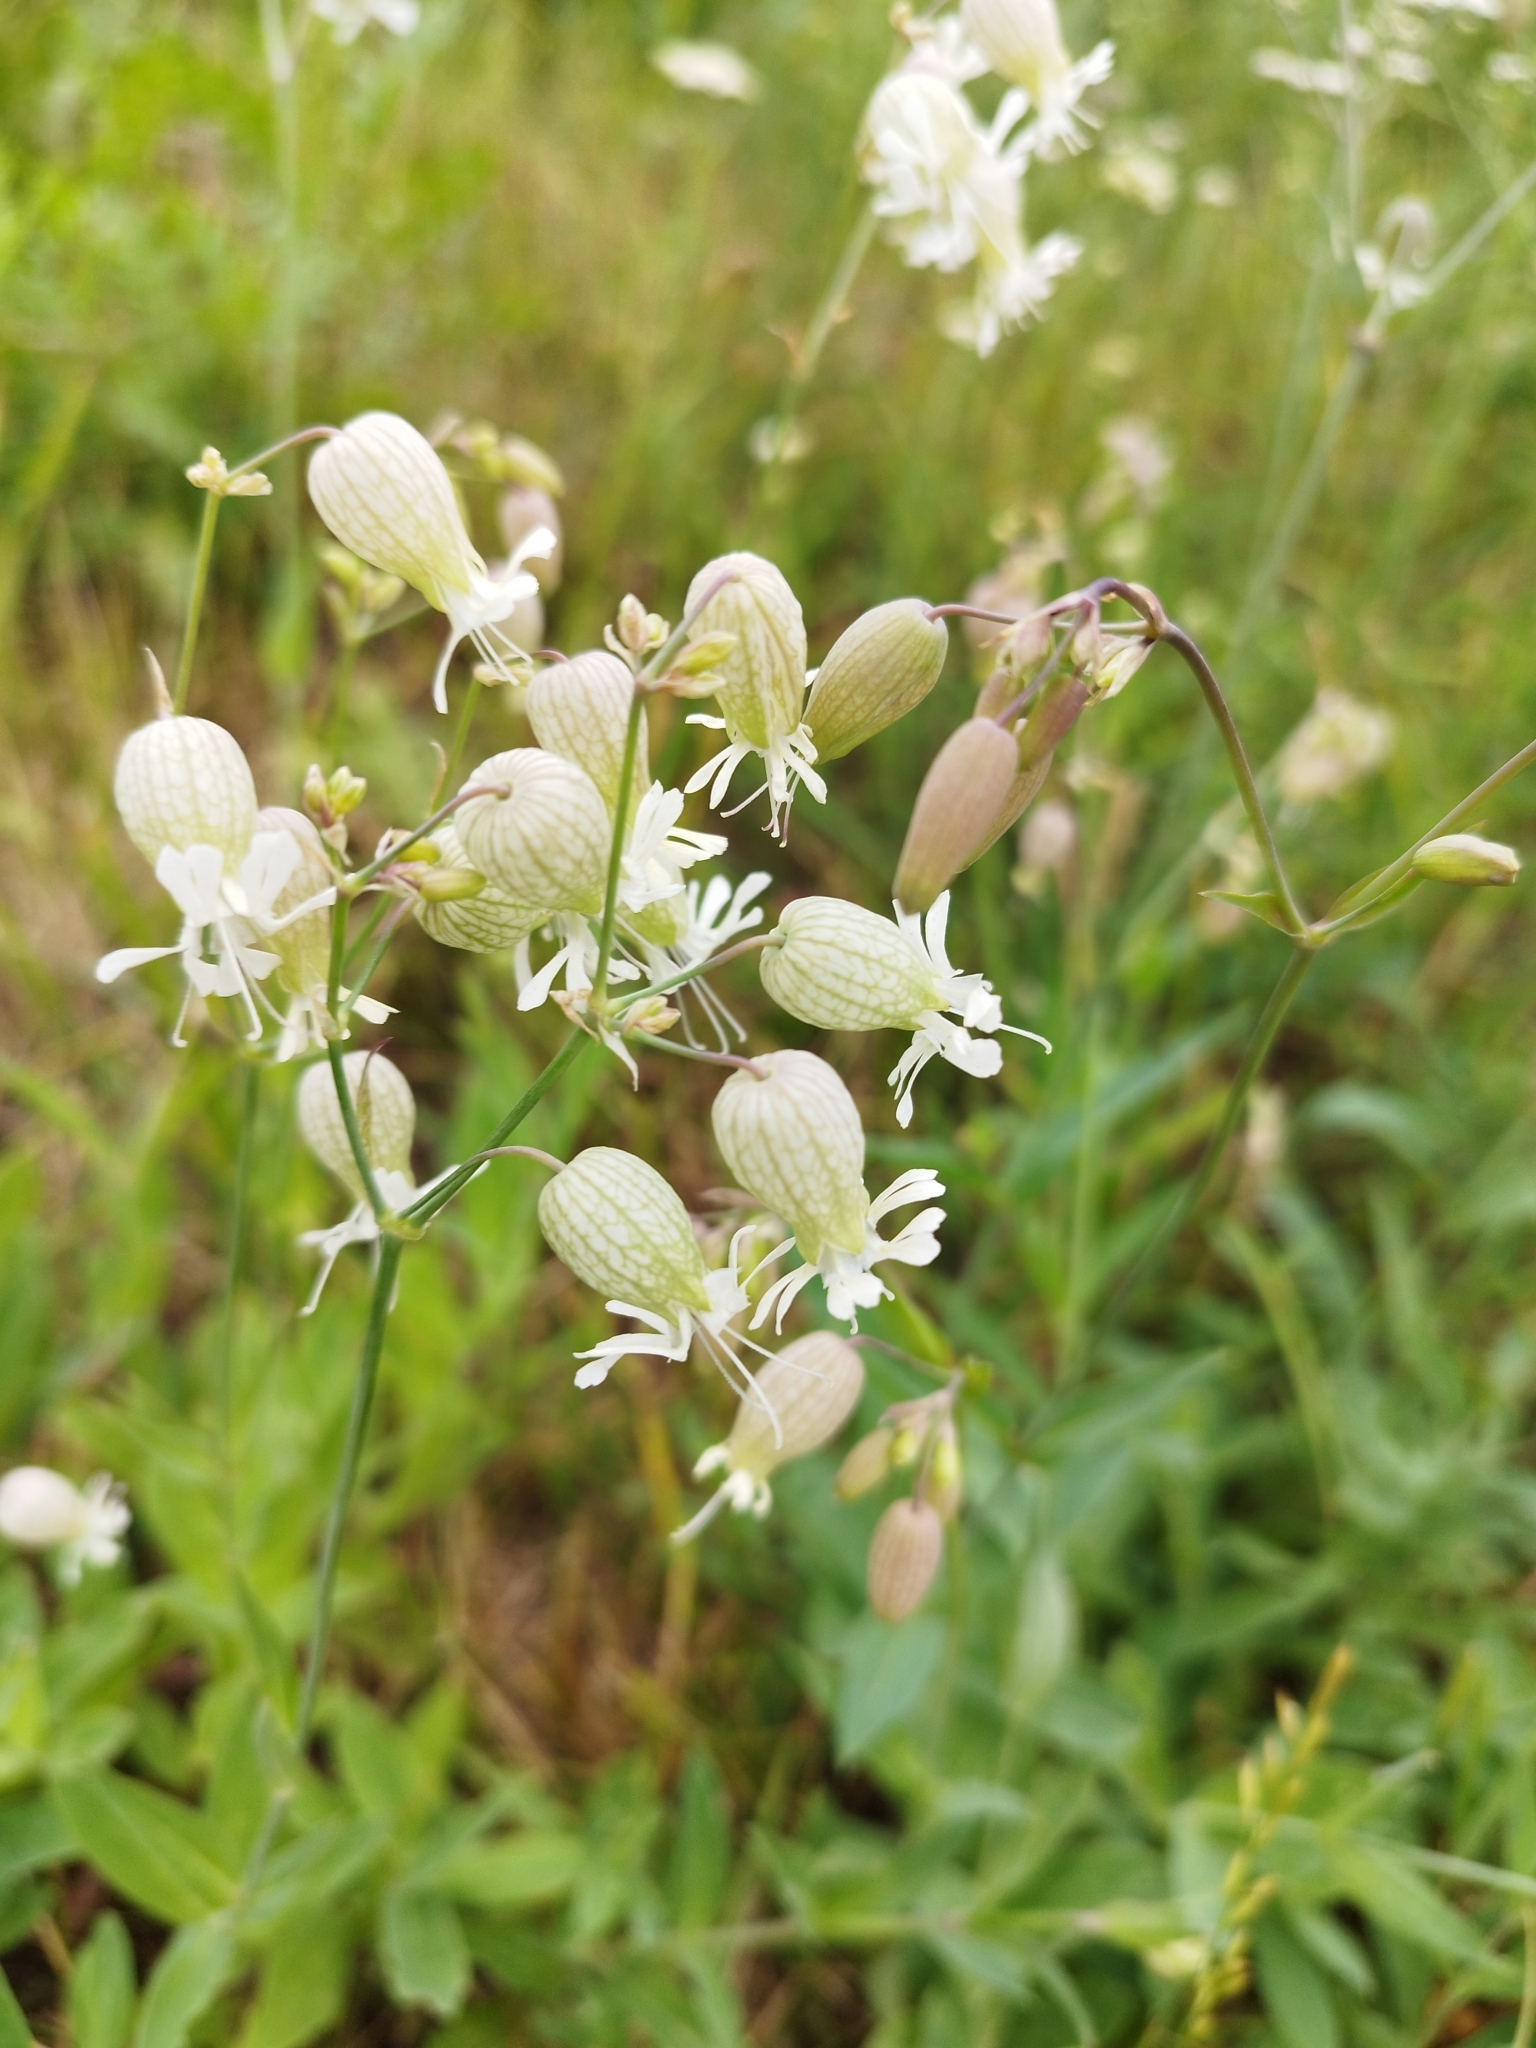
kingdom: Plantae
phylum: Tracheophyta
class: Magnoliopsida
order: Caryophyllales
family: Caryophyllaceae
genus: Silene
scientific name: Silene vulgaris
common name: Bladder campion
